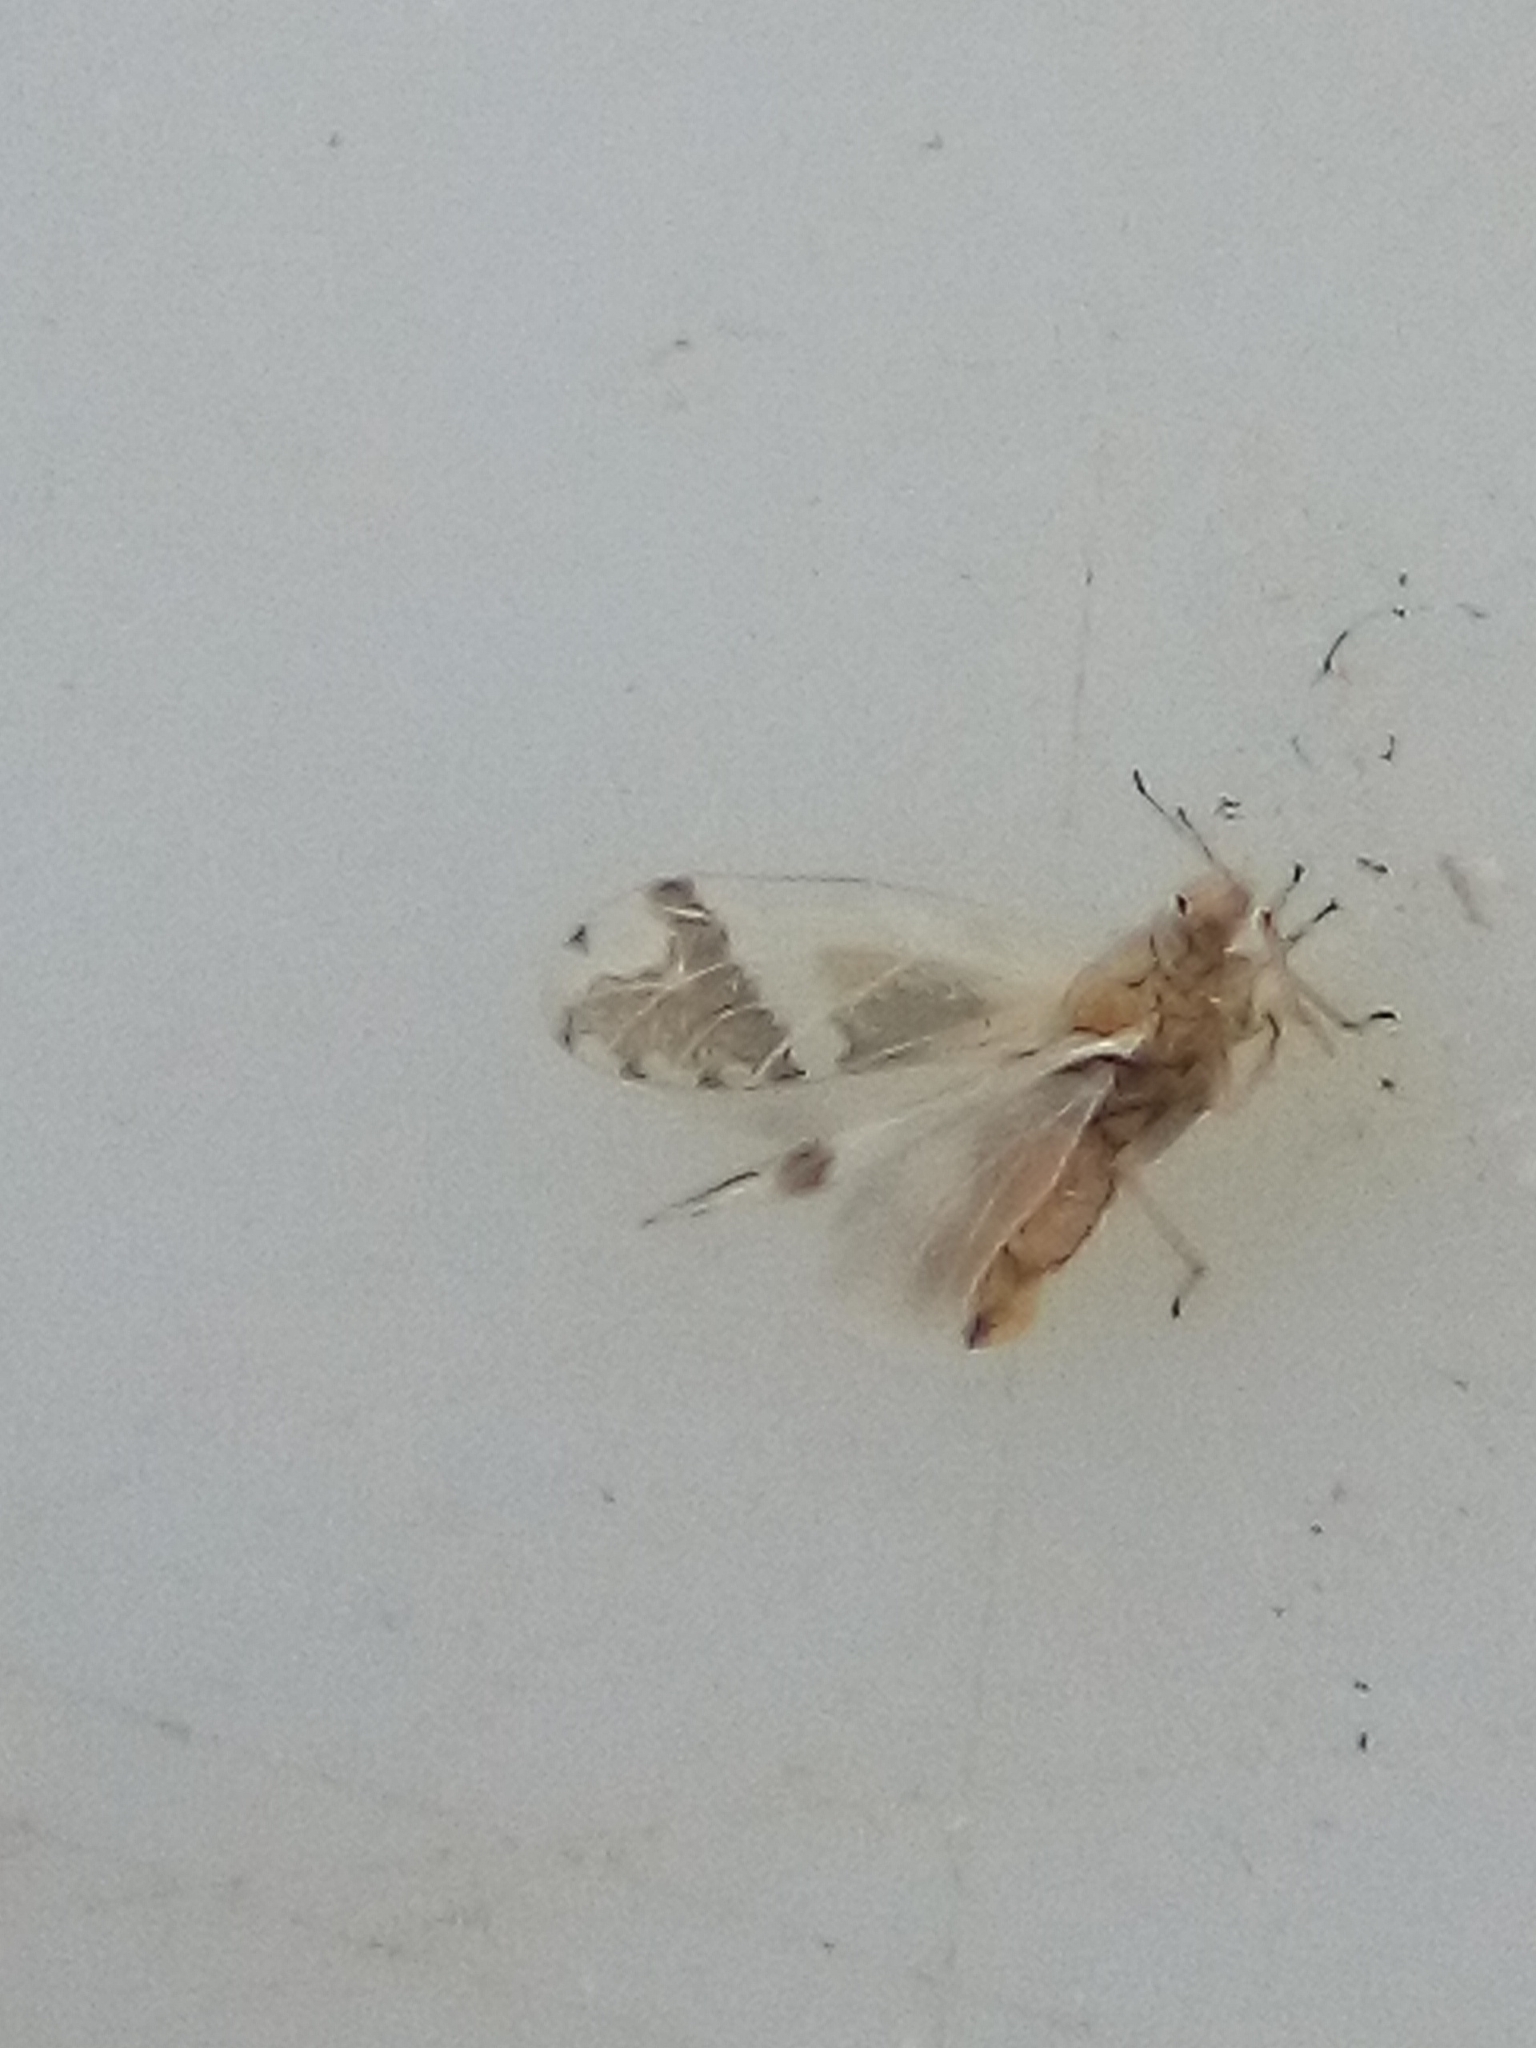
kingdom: Animalia
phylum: Arthropoda
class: Insecta
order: Hemiptera
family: Triozidae
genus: Casuarinicola
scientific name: Casuarinicola nigrimaculatus
